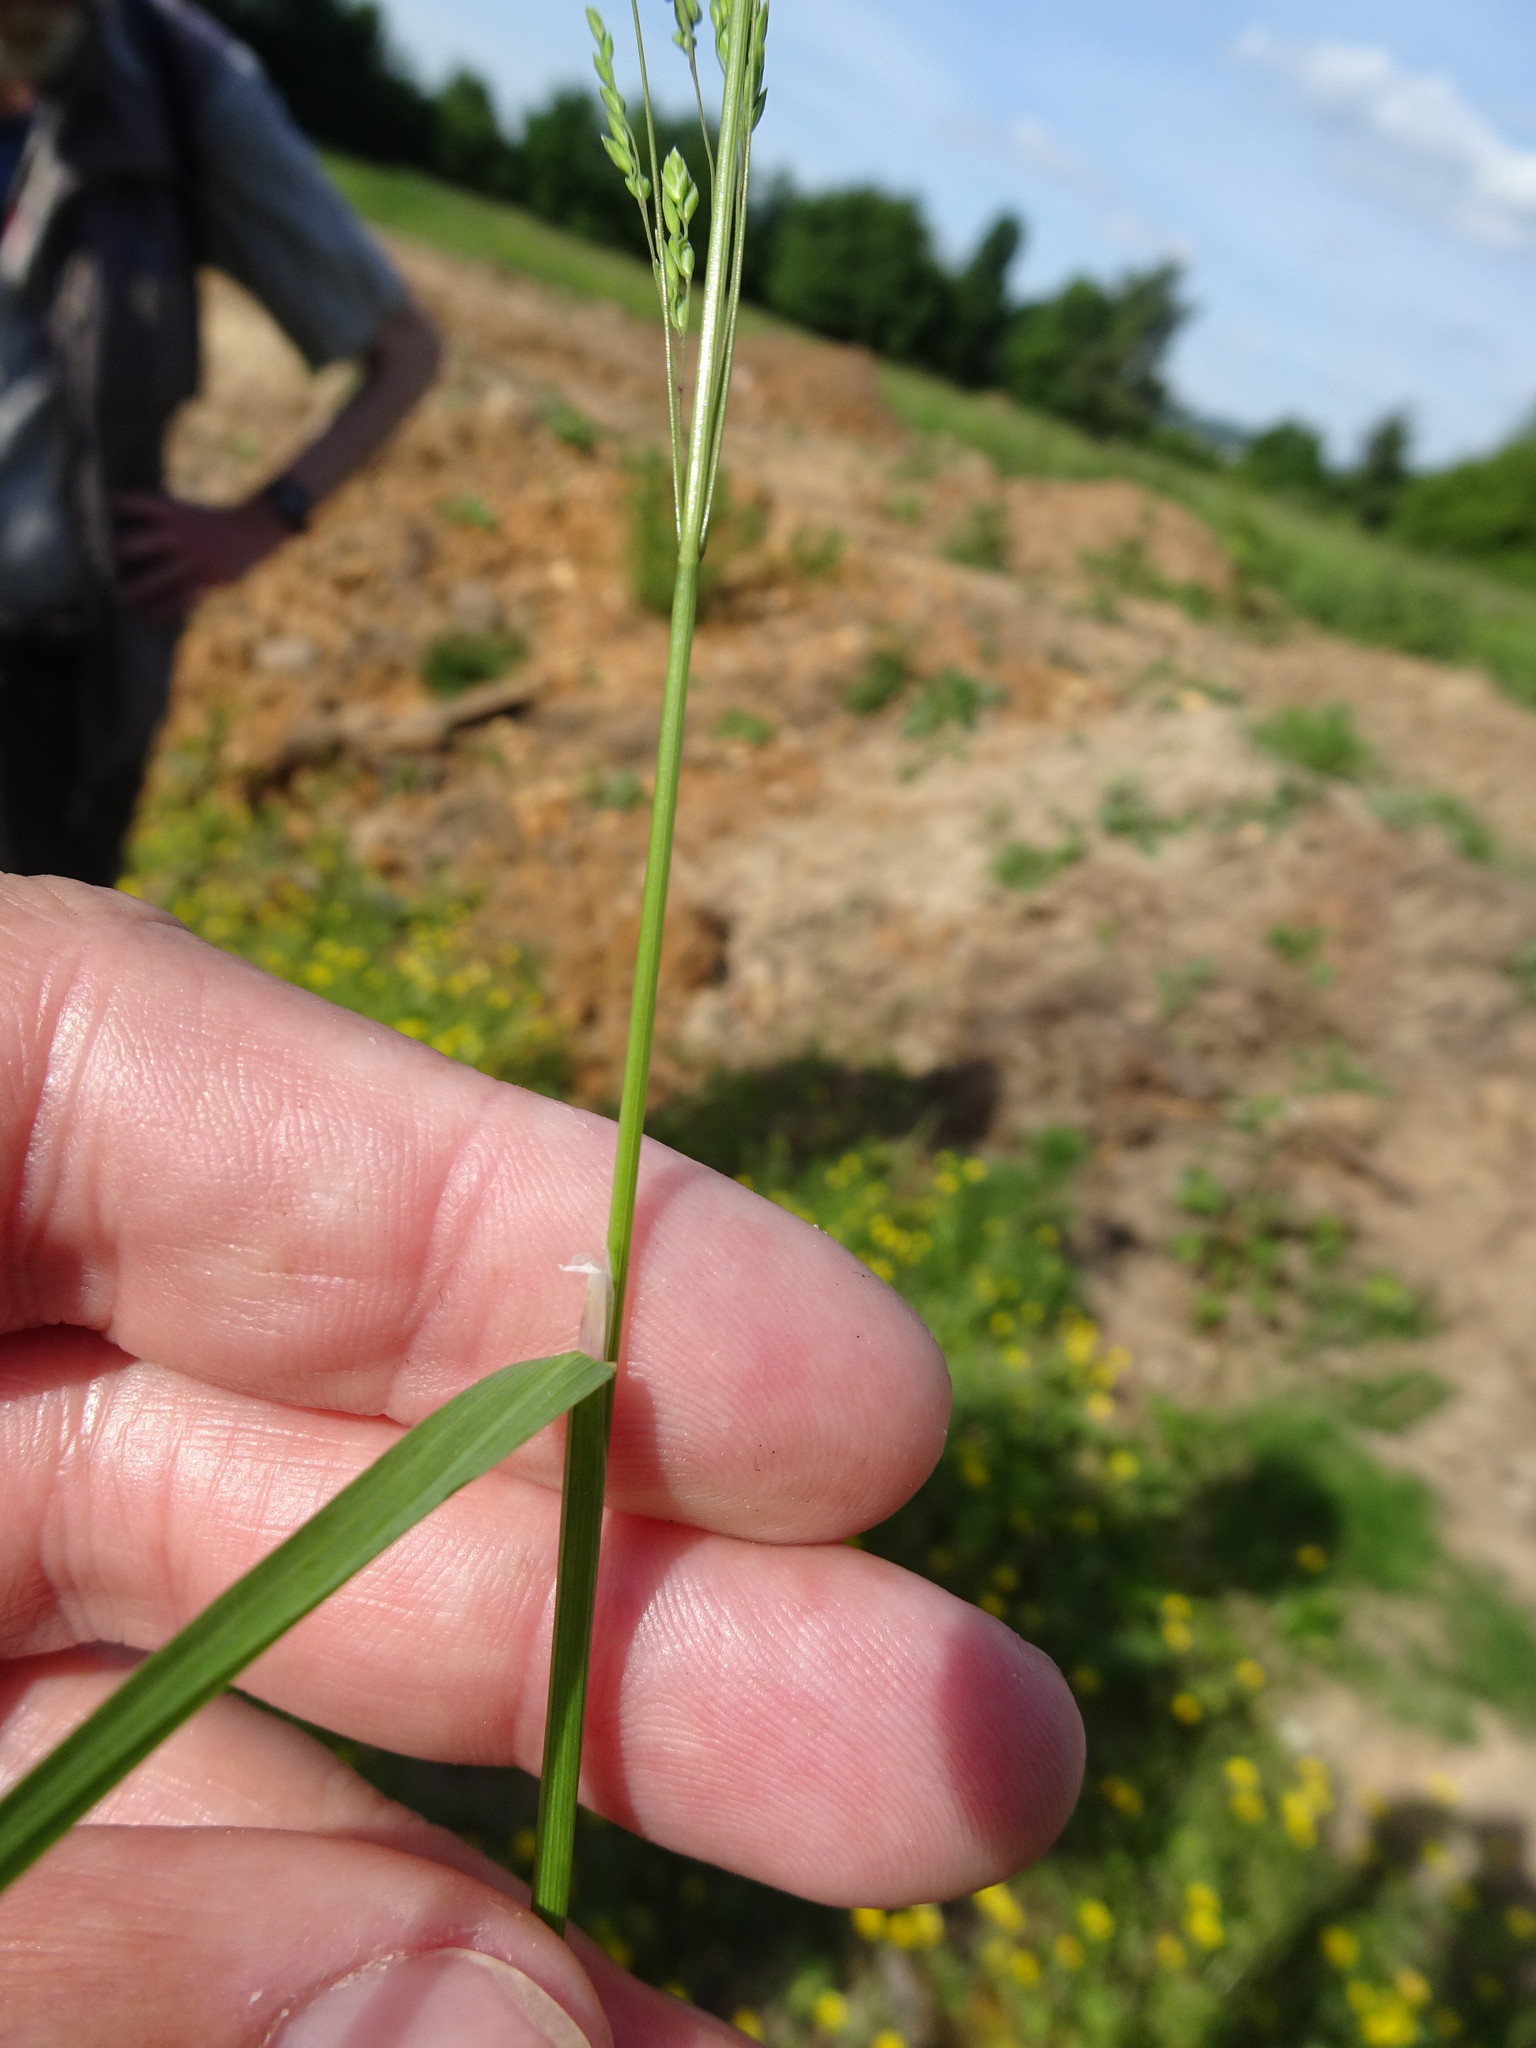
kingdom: Plantae
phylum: Tracheophyta
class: Liliopsida
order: Poales
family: Poaceae
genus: Poa
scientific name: Poa trivialis
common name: Rough bluegrass
